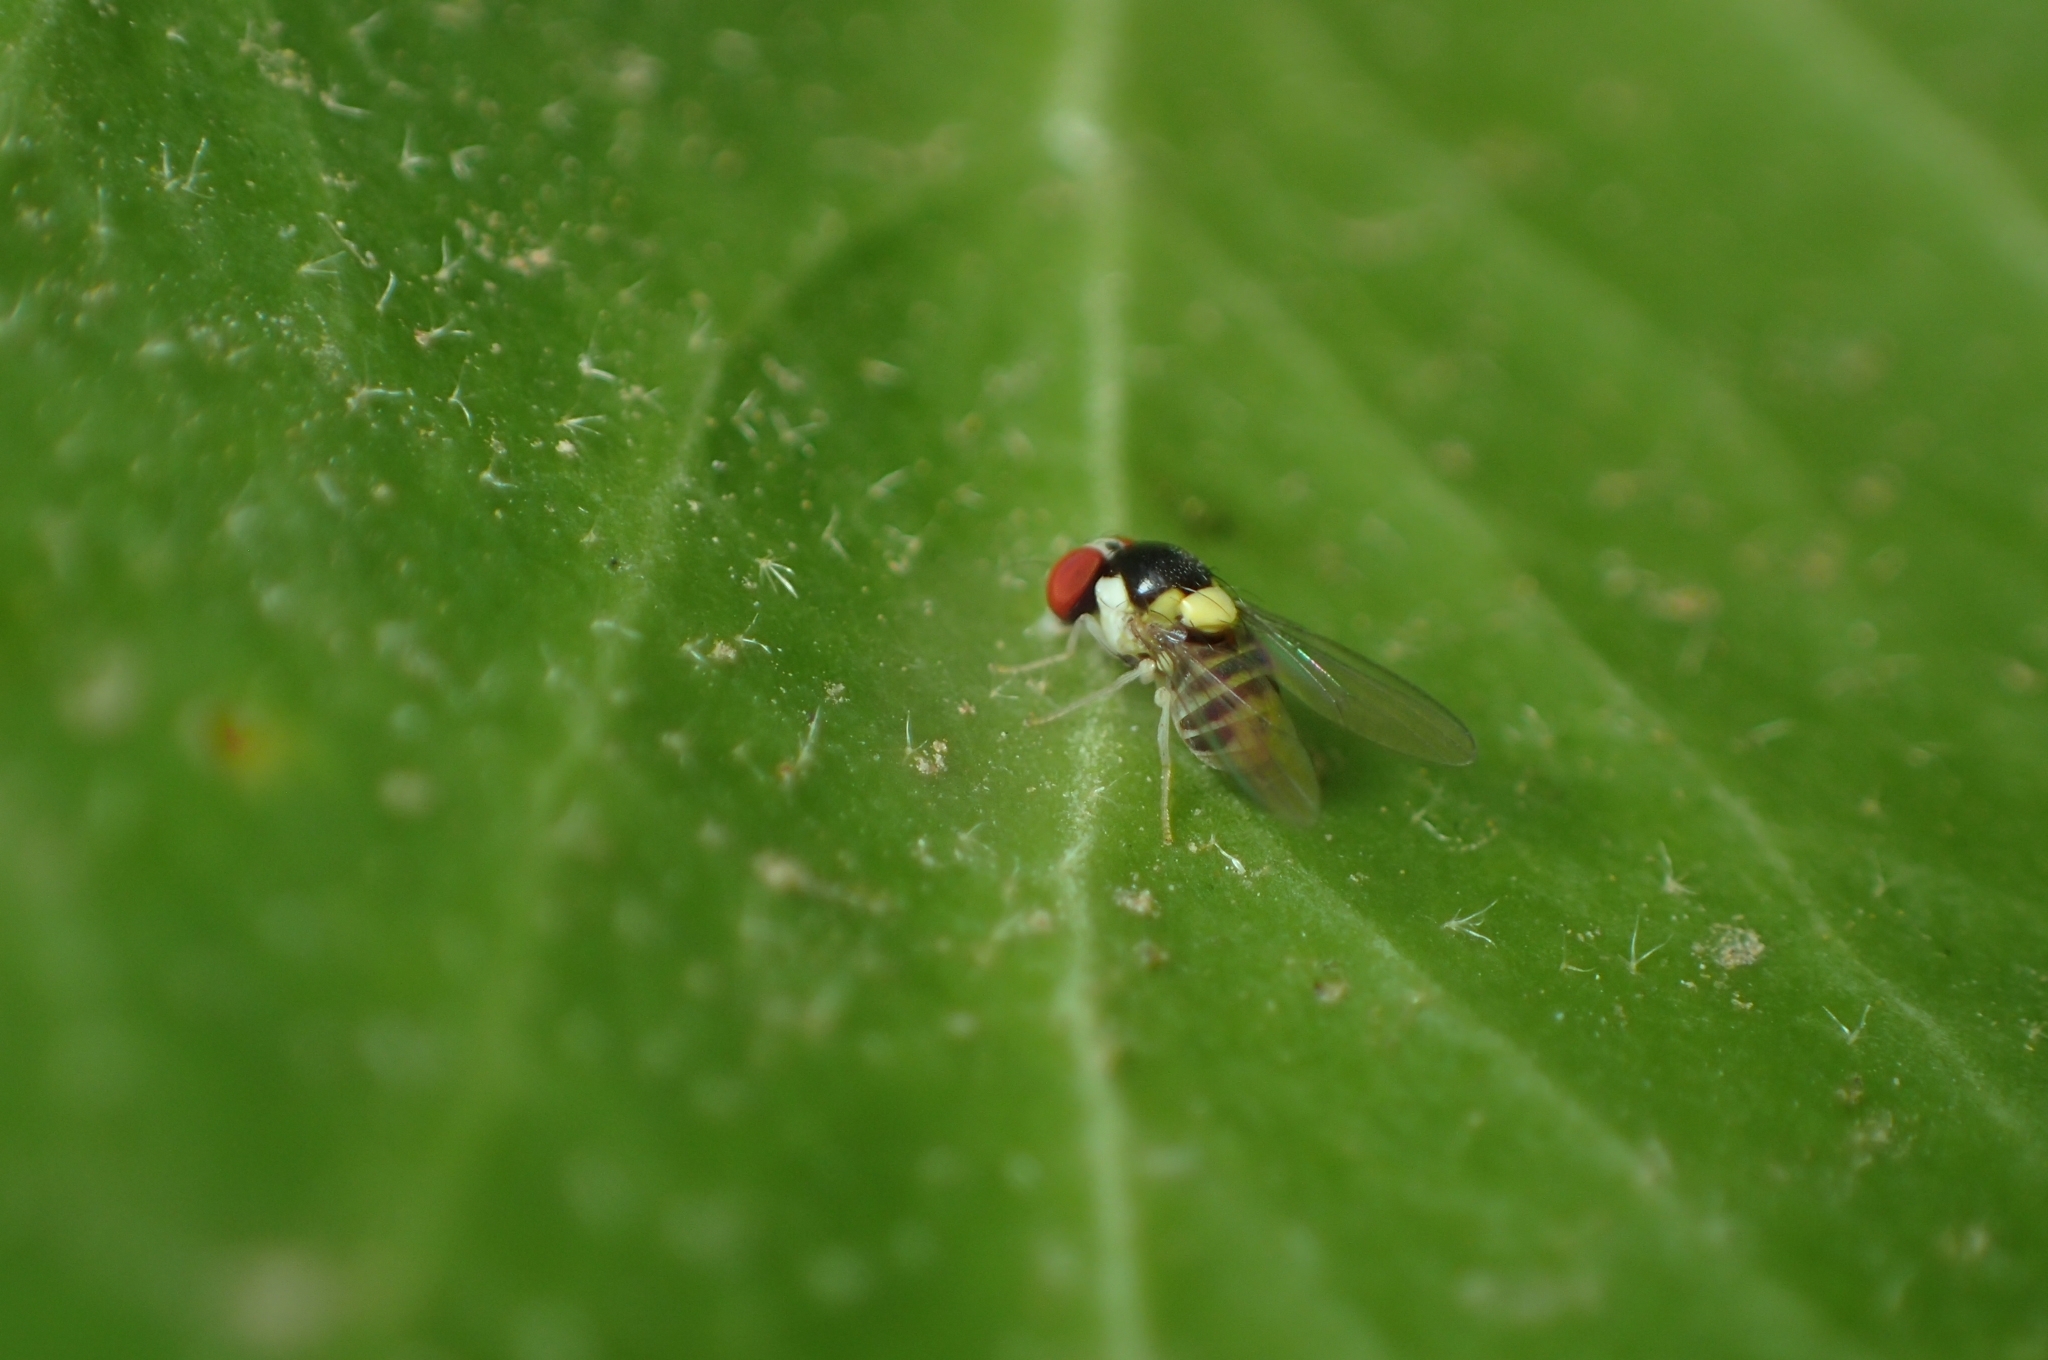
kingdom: Animalia
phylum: Arthropoda
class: Insecta
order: Diptera
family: Drosophilidae
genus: Acletoxenus
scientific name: Acletoxenus formosus
